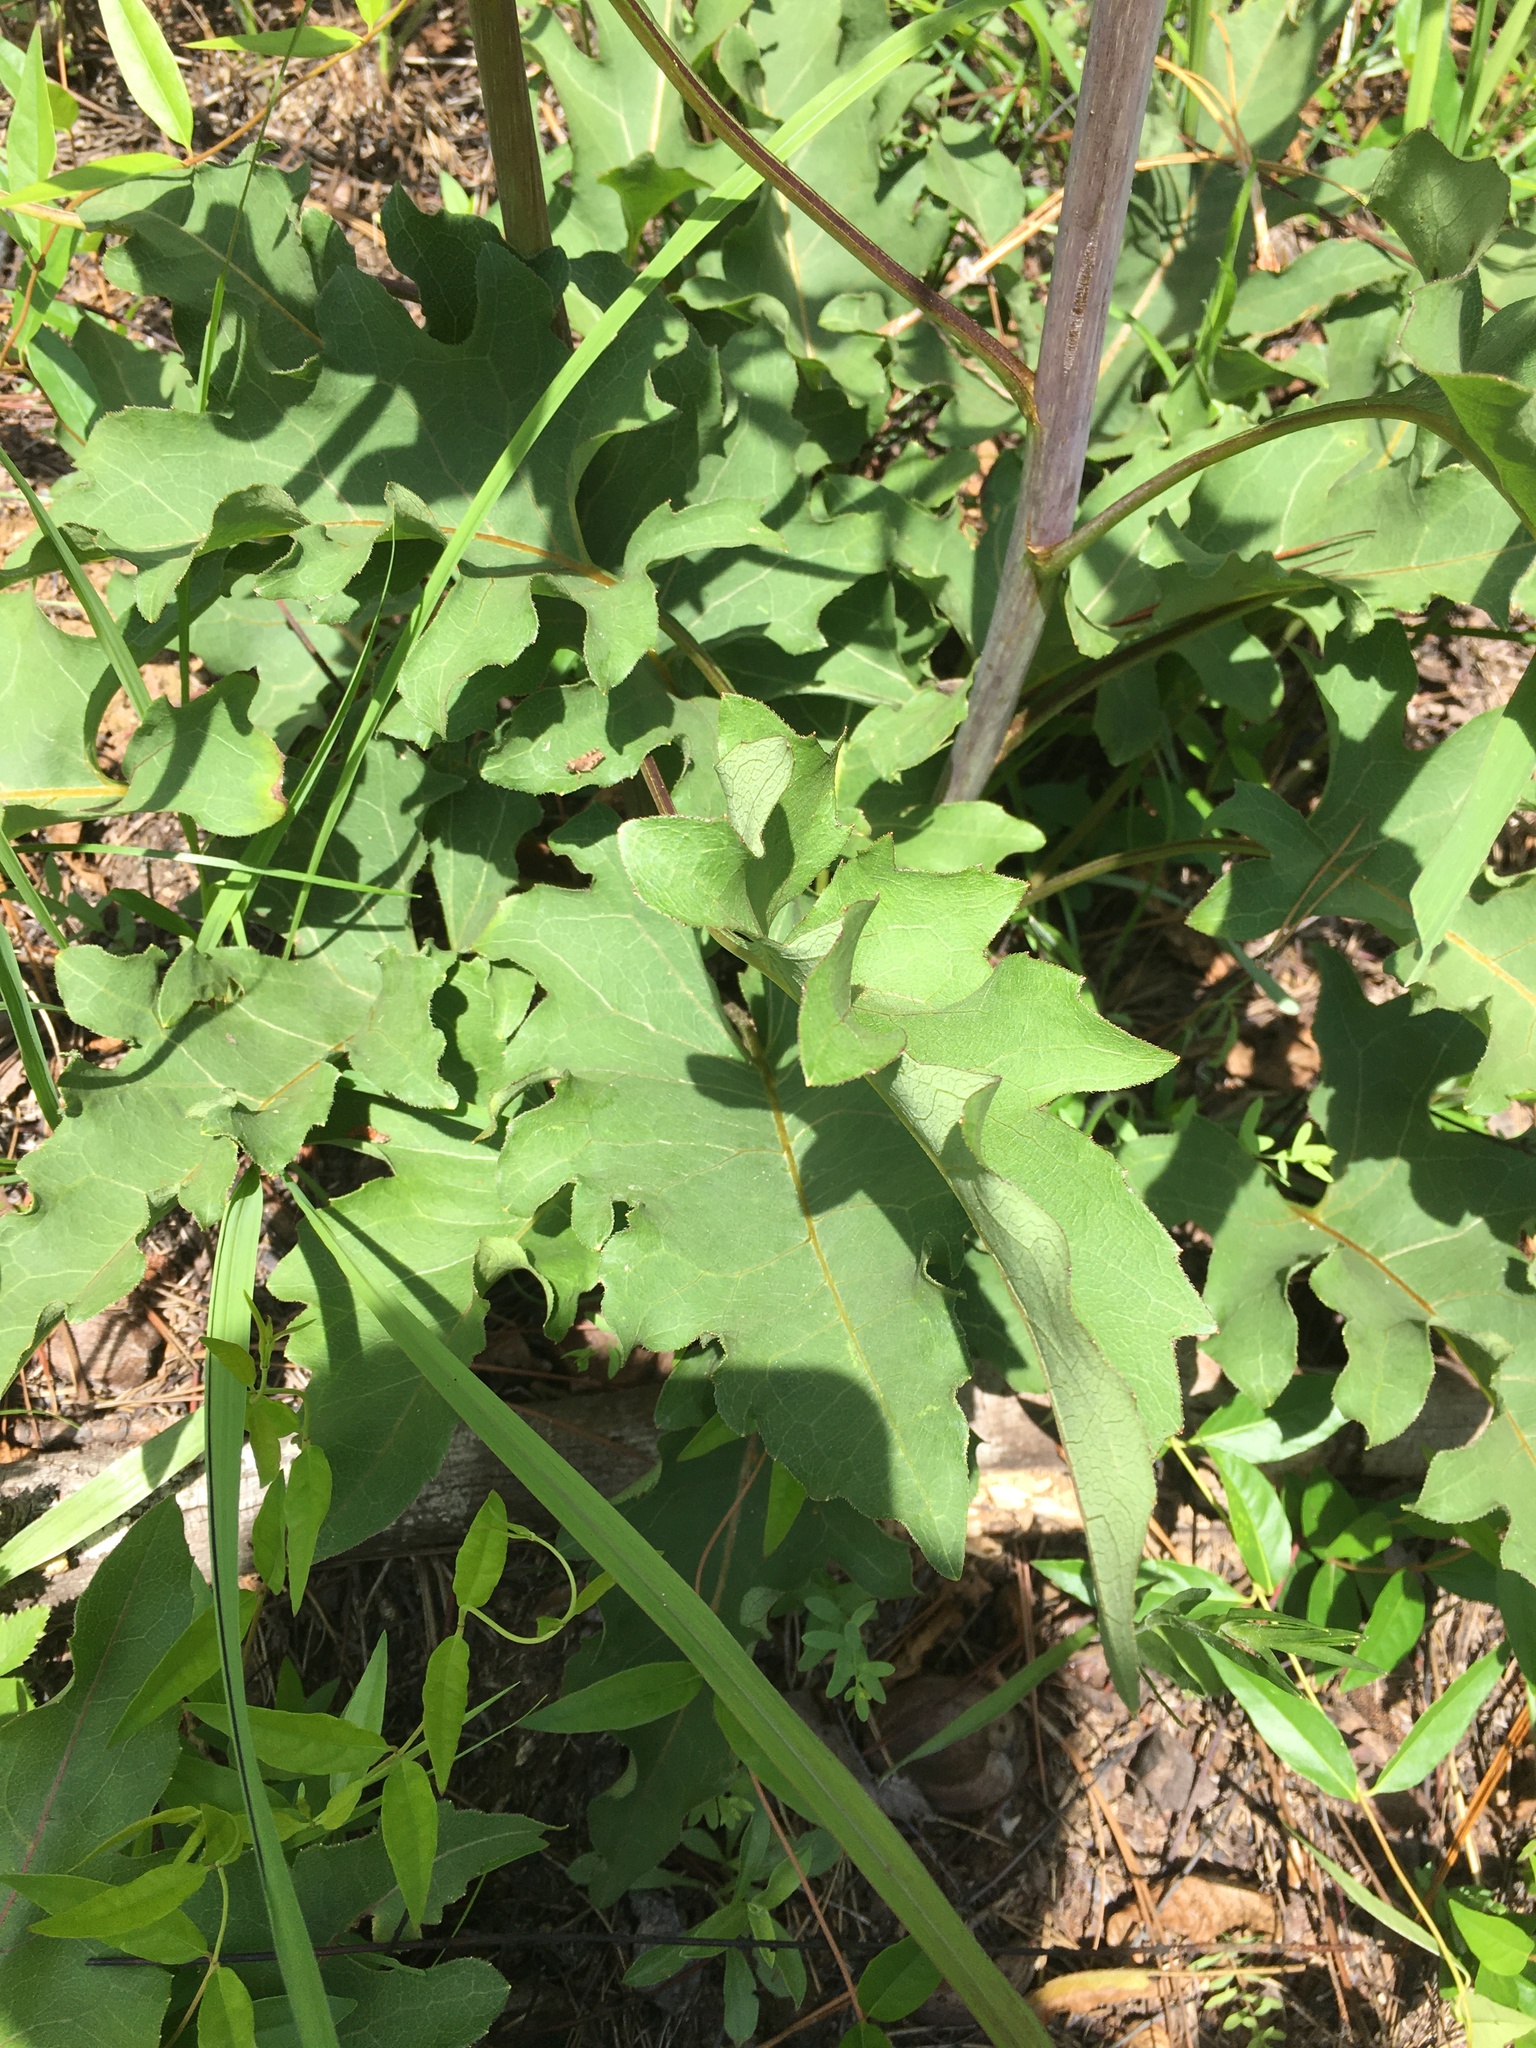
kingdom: Plantae
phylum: Tracheophyta
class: Magnoliopsida
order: Asterales
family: Asteraceae
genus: Silphium
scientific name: Silphium compositum
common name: Lesser basal-leaf rosinweed
